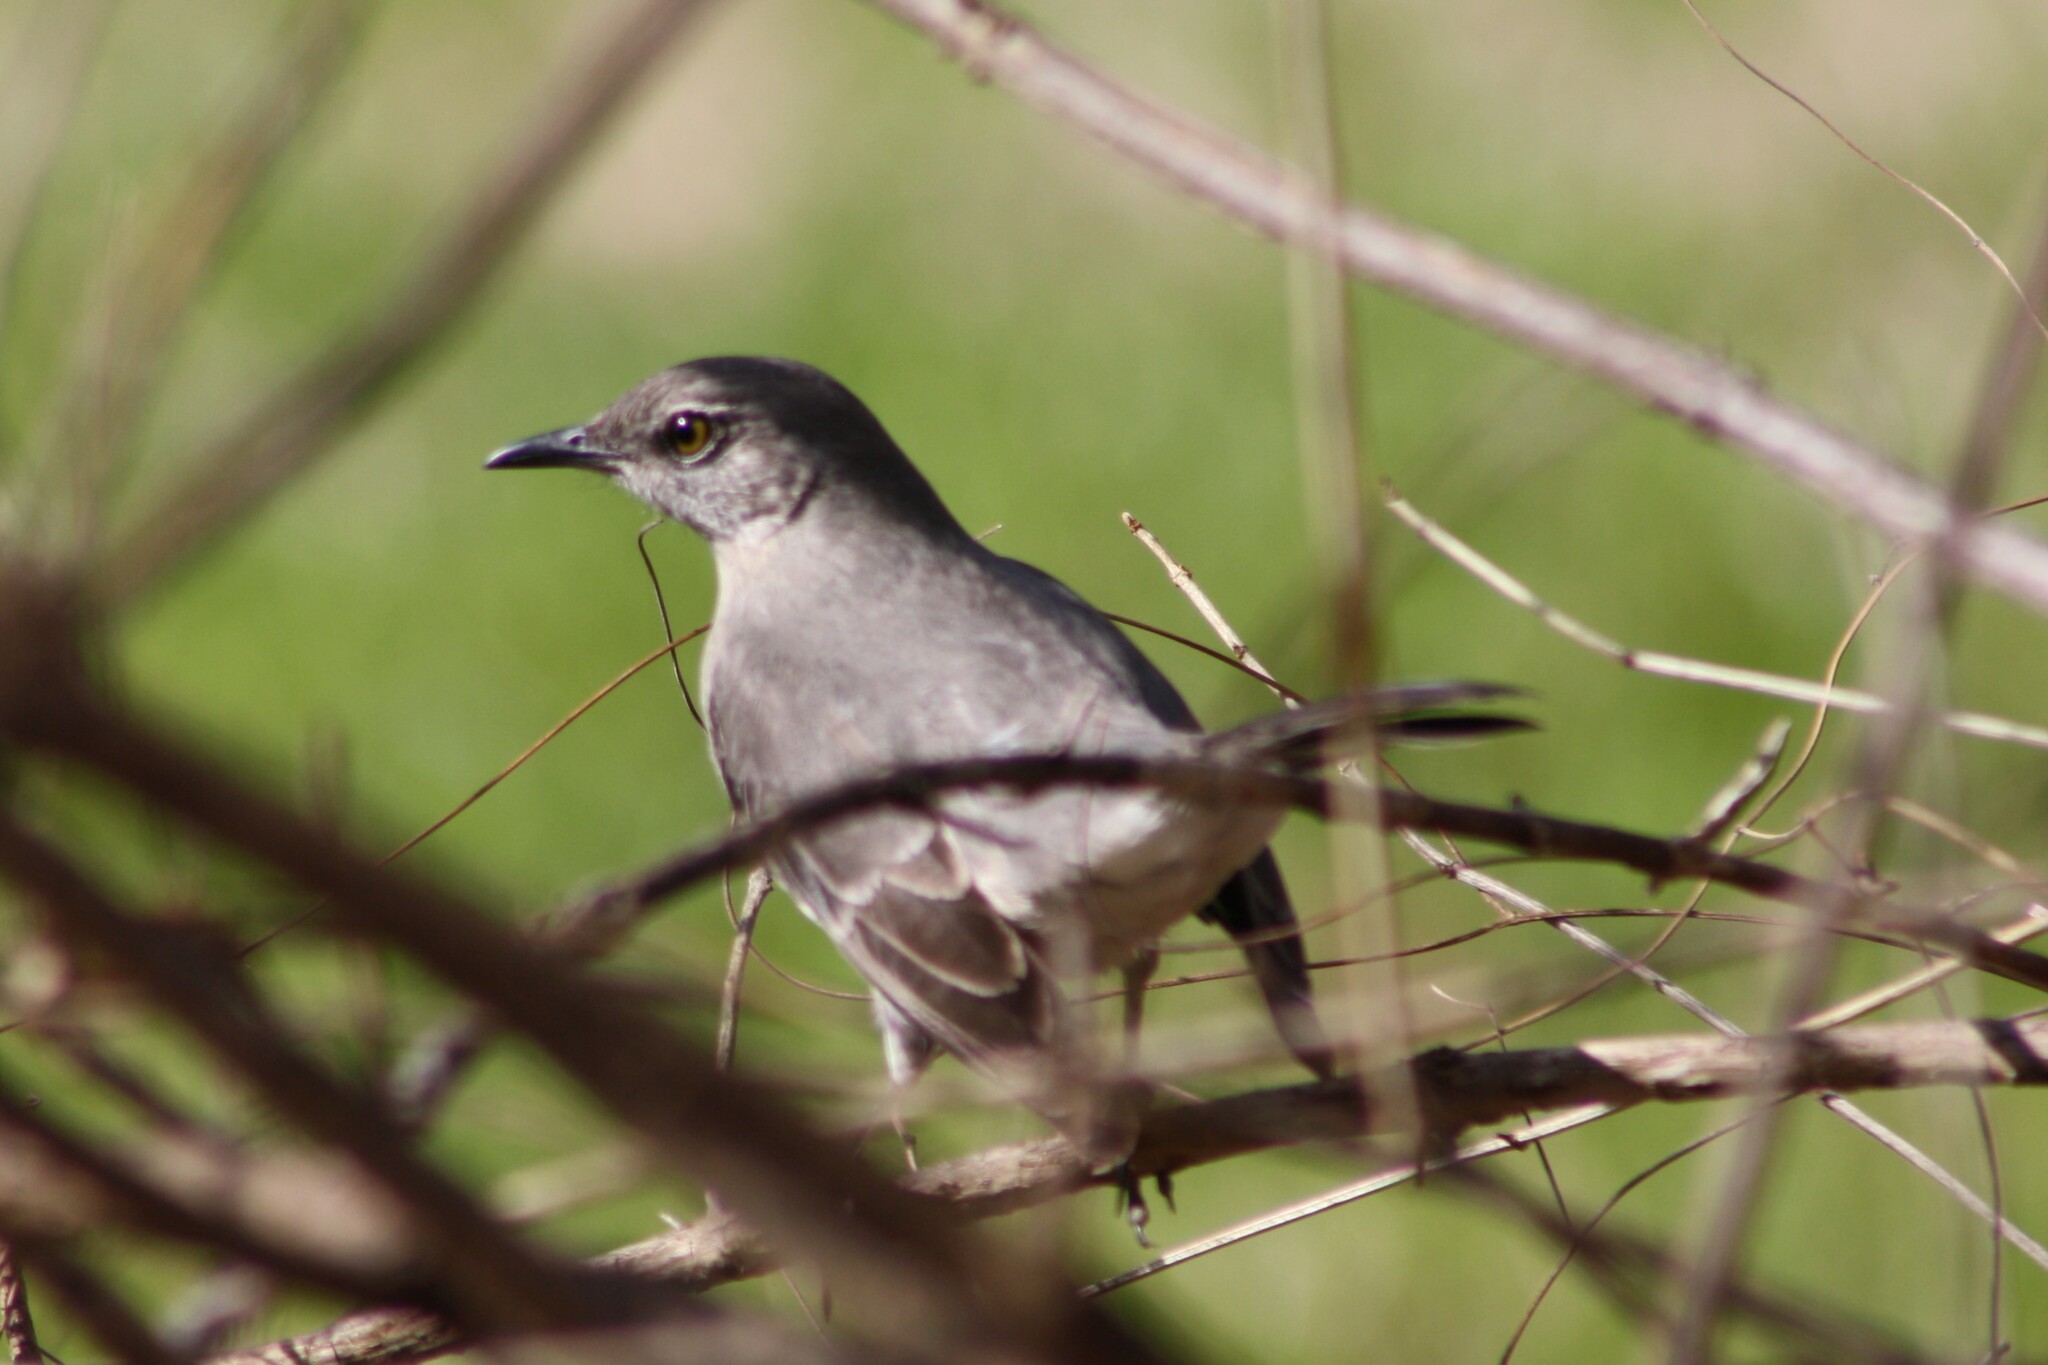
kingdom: Animalia
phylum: Chordata
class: Aves
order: Passeriformes
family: Mimidae
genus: Mimus
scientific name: Mimus polyglottos
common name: Northern mockingbird
